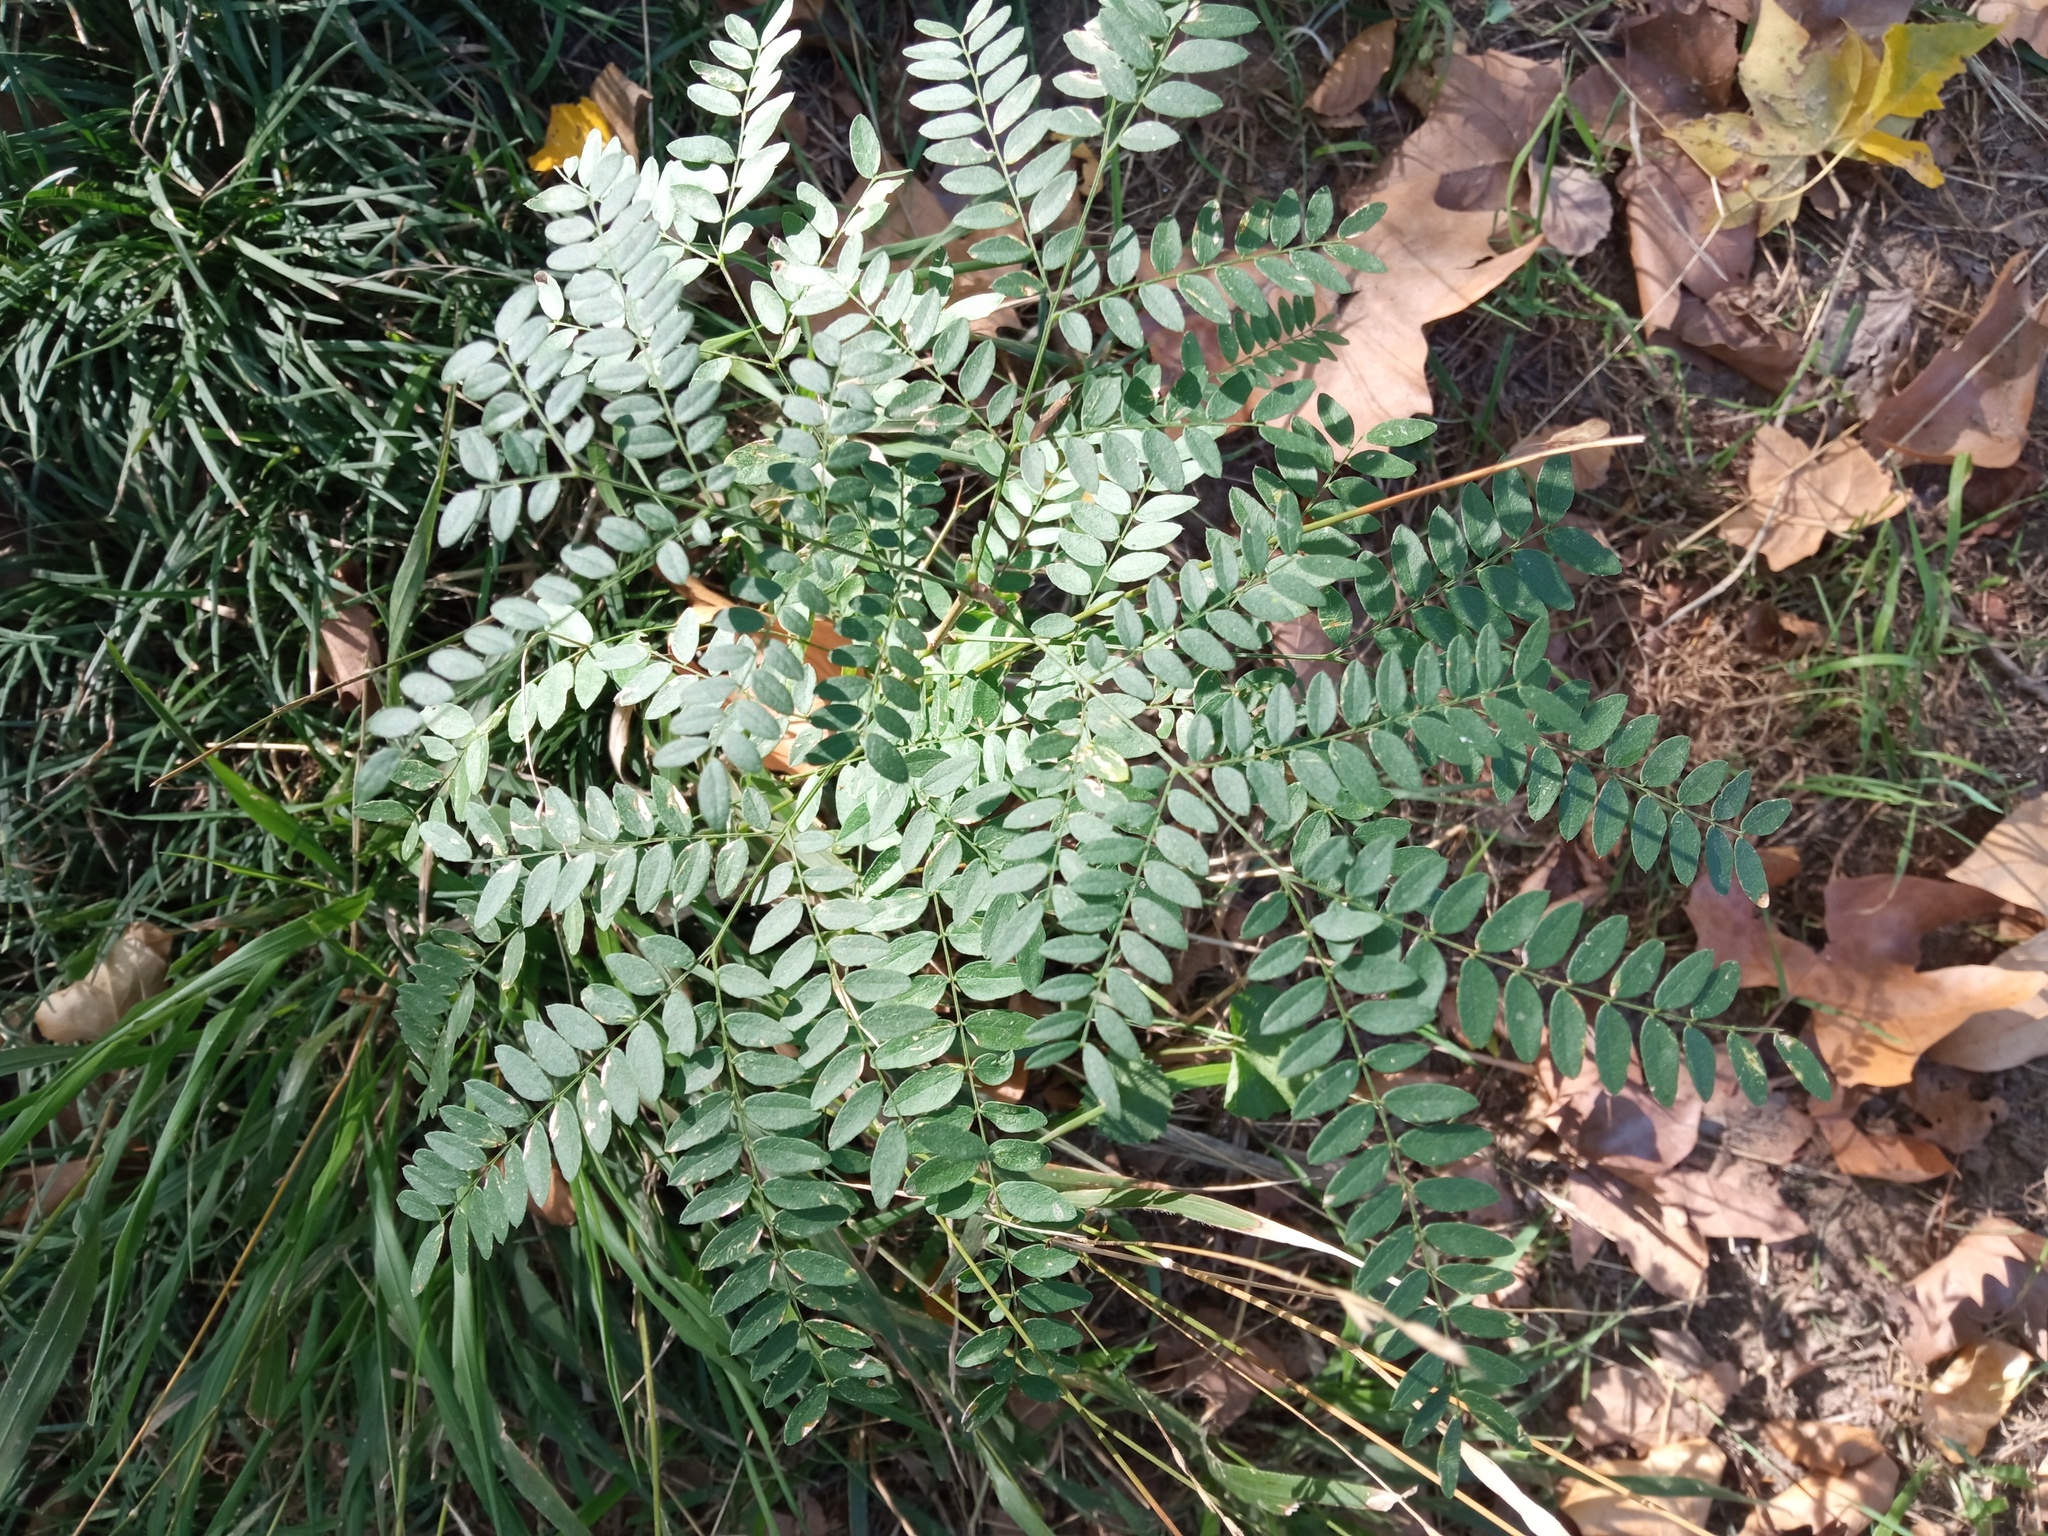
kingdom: Plantae
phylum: Tracheophyta
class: Magnoliopsida
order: Fabales
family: Fabaceae
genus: Gleditsia
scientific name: Gleditsia triacanthos
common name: Common honeylocust
